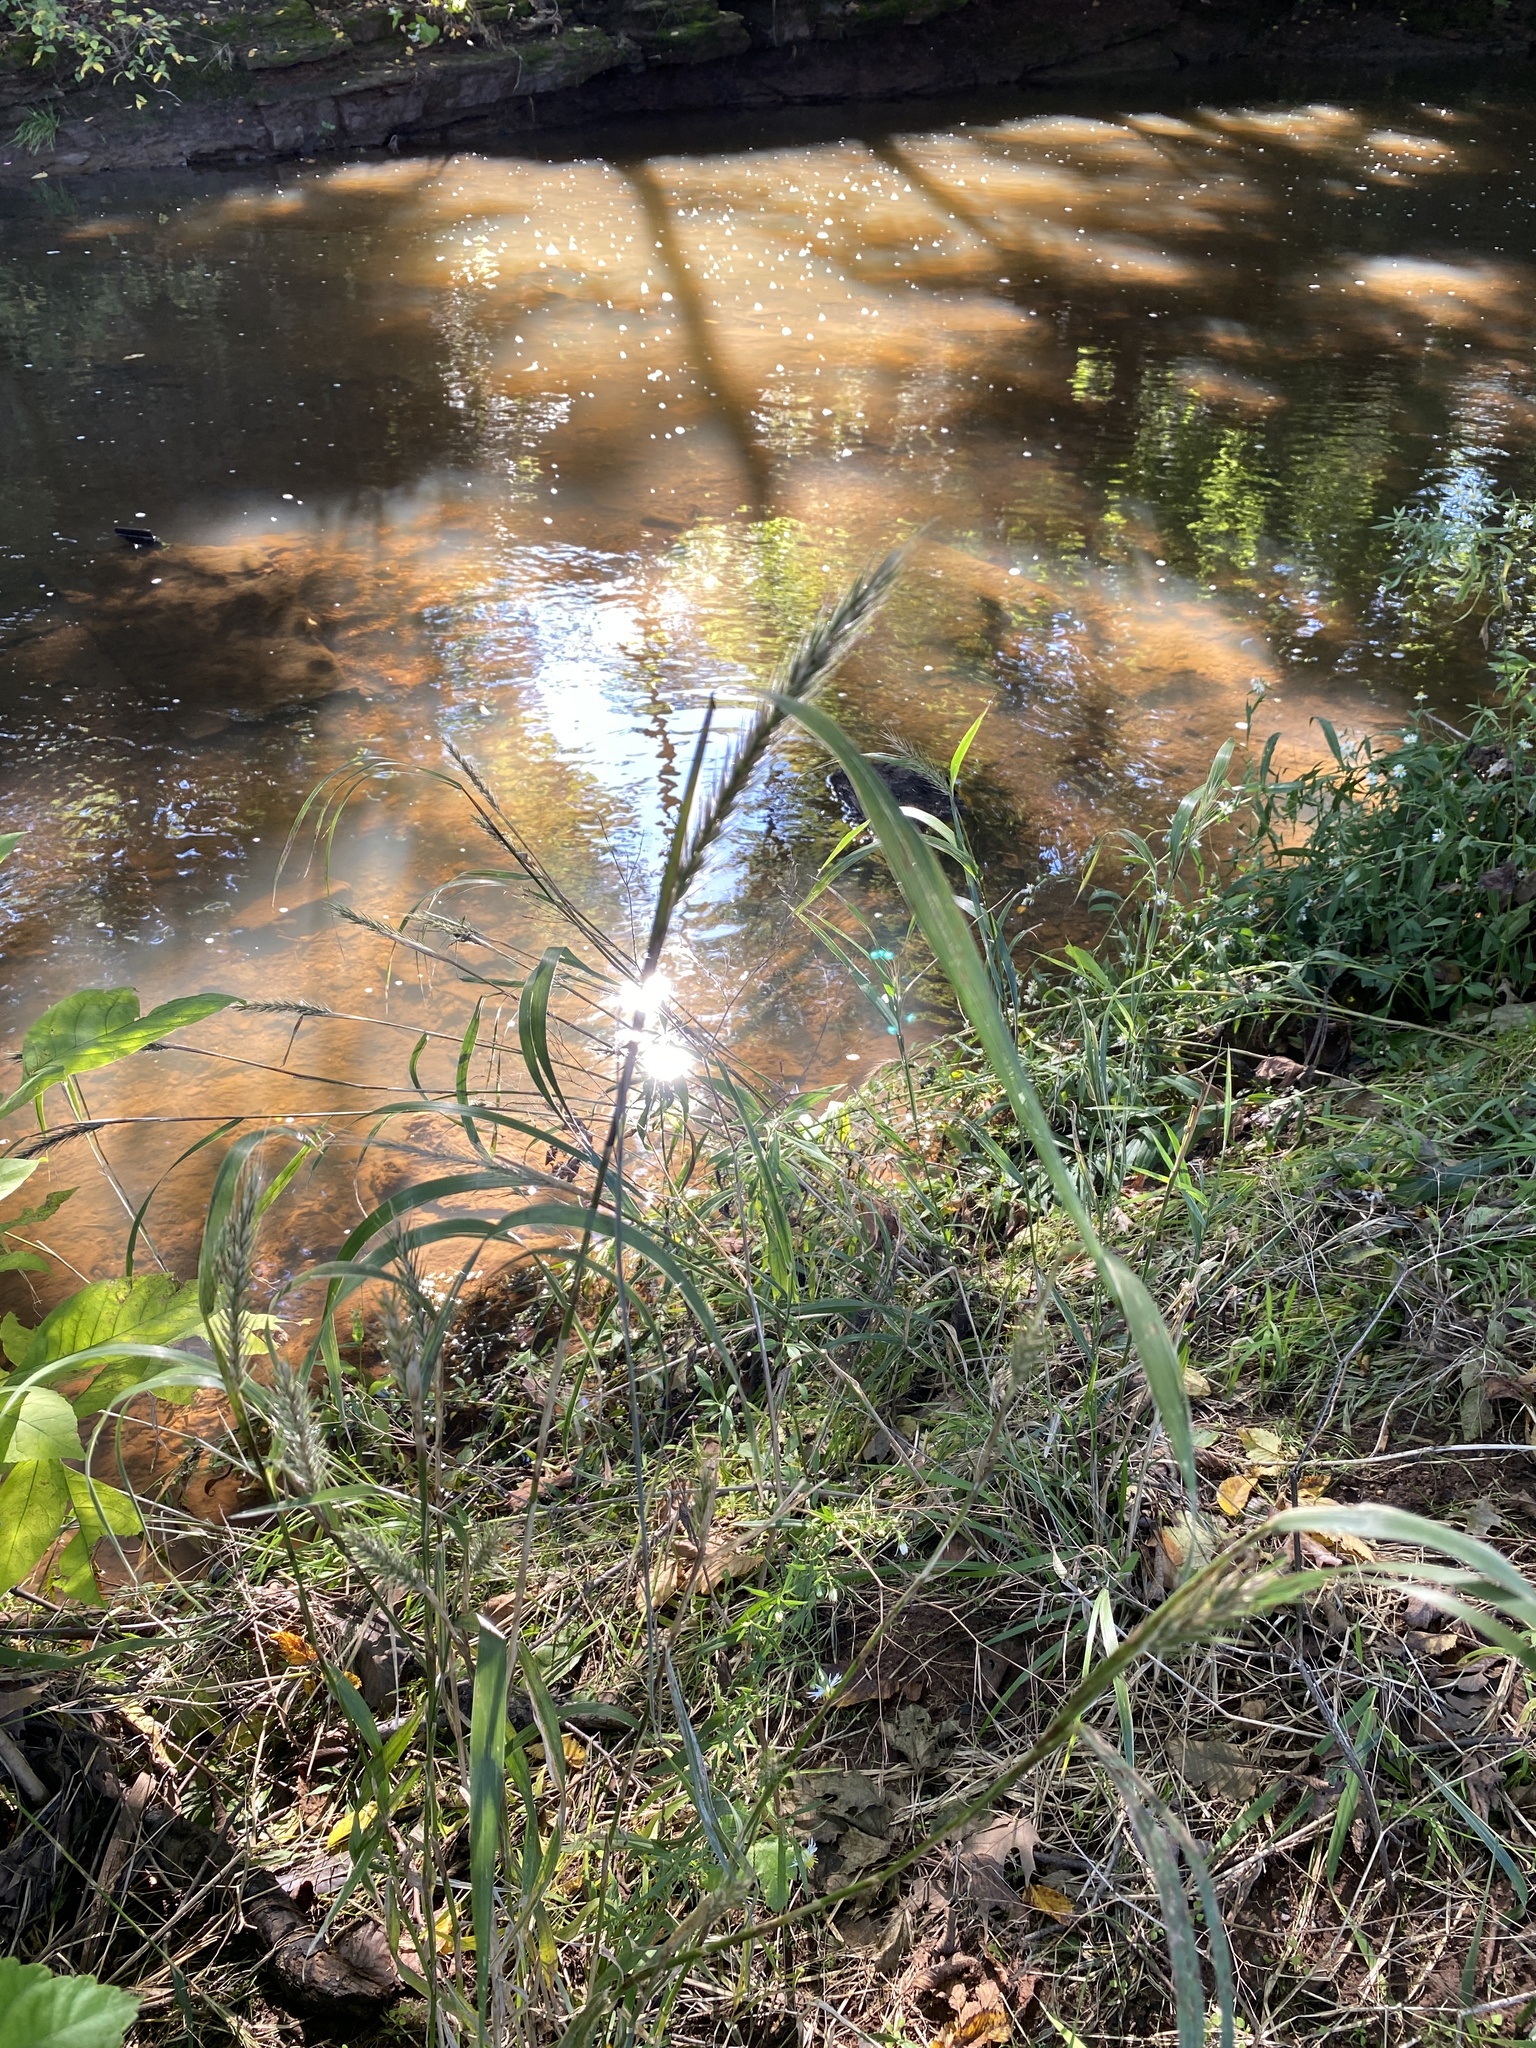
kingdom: Plantae
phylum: Tracheophyta
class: Liliopsida
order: Poales
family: Poaceae
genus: Elymus
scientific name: Elymus virginicus
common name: Common eastern wildrye
